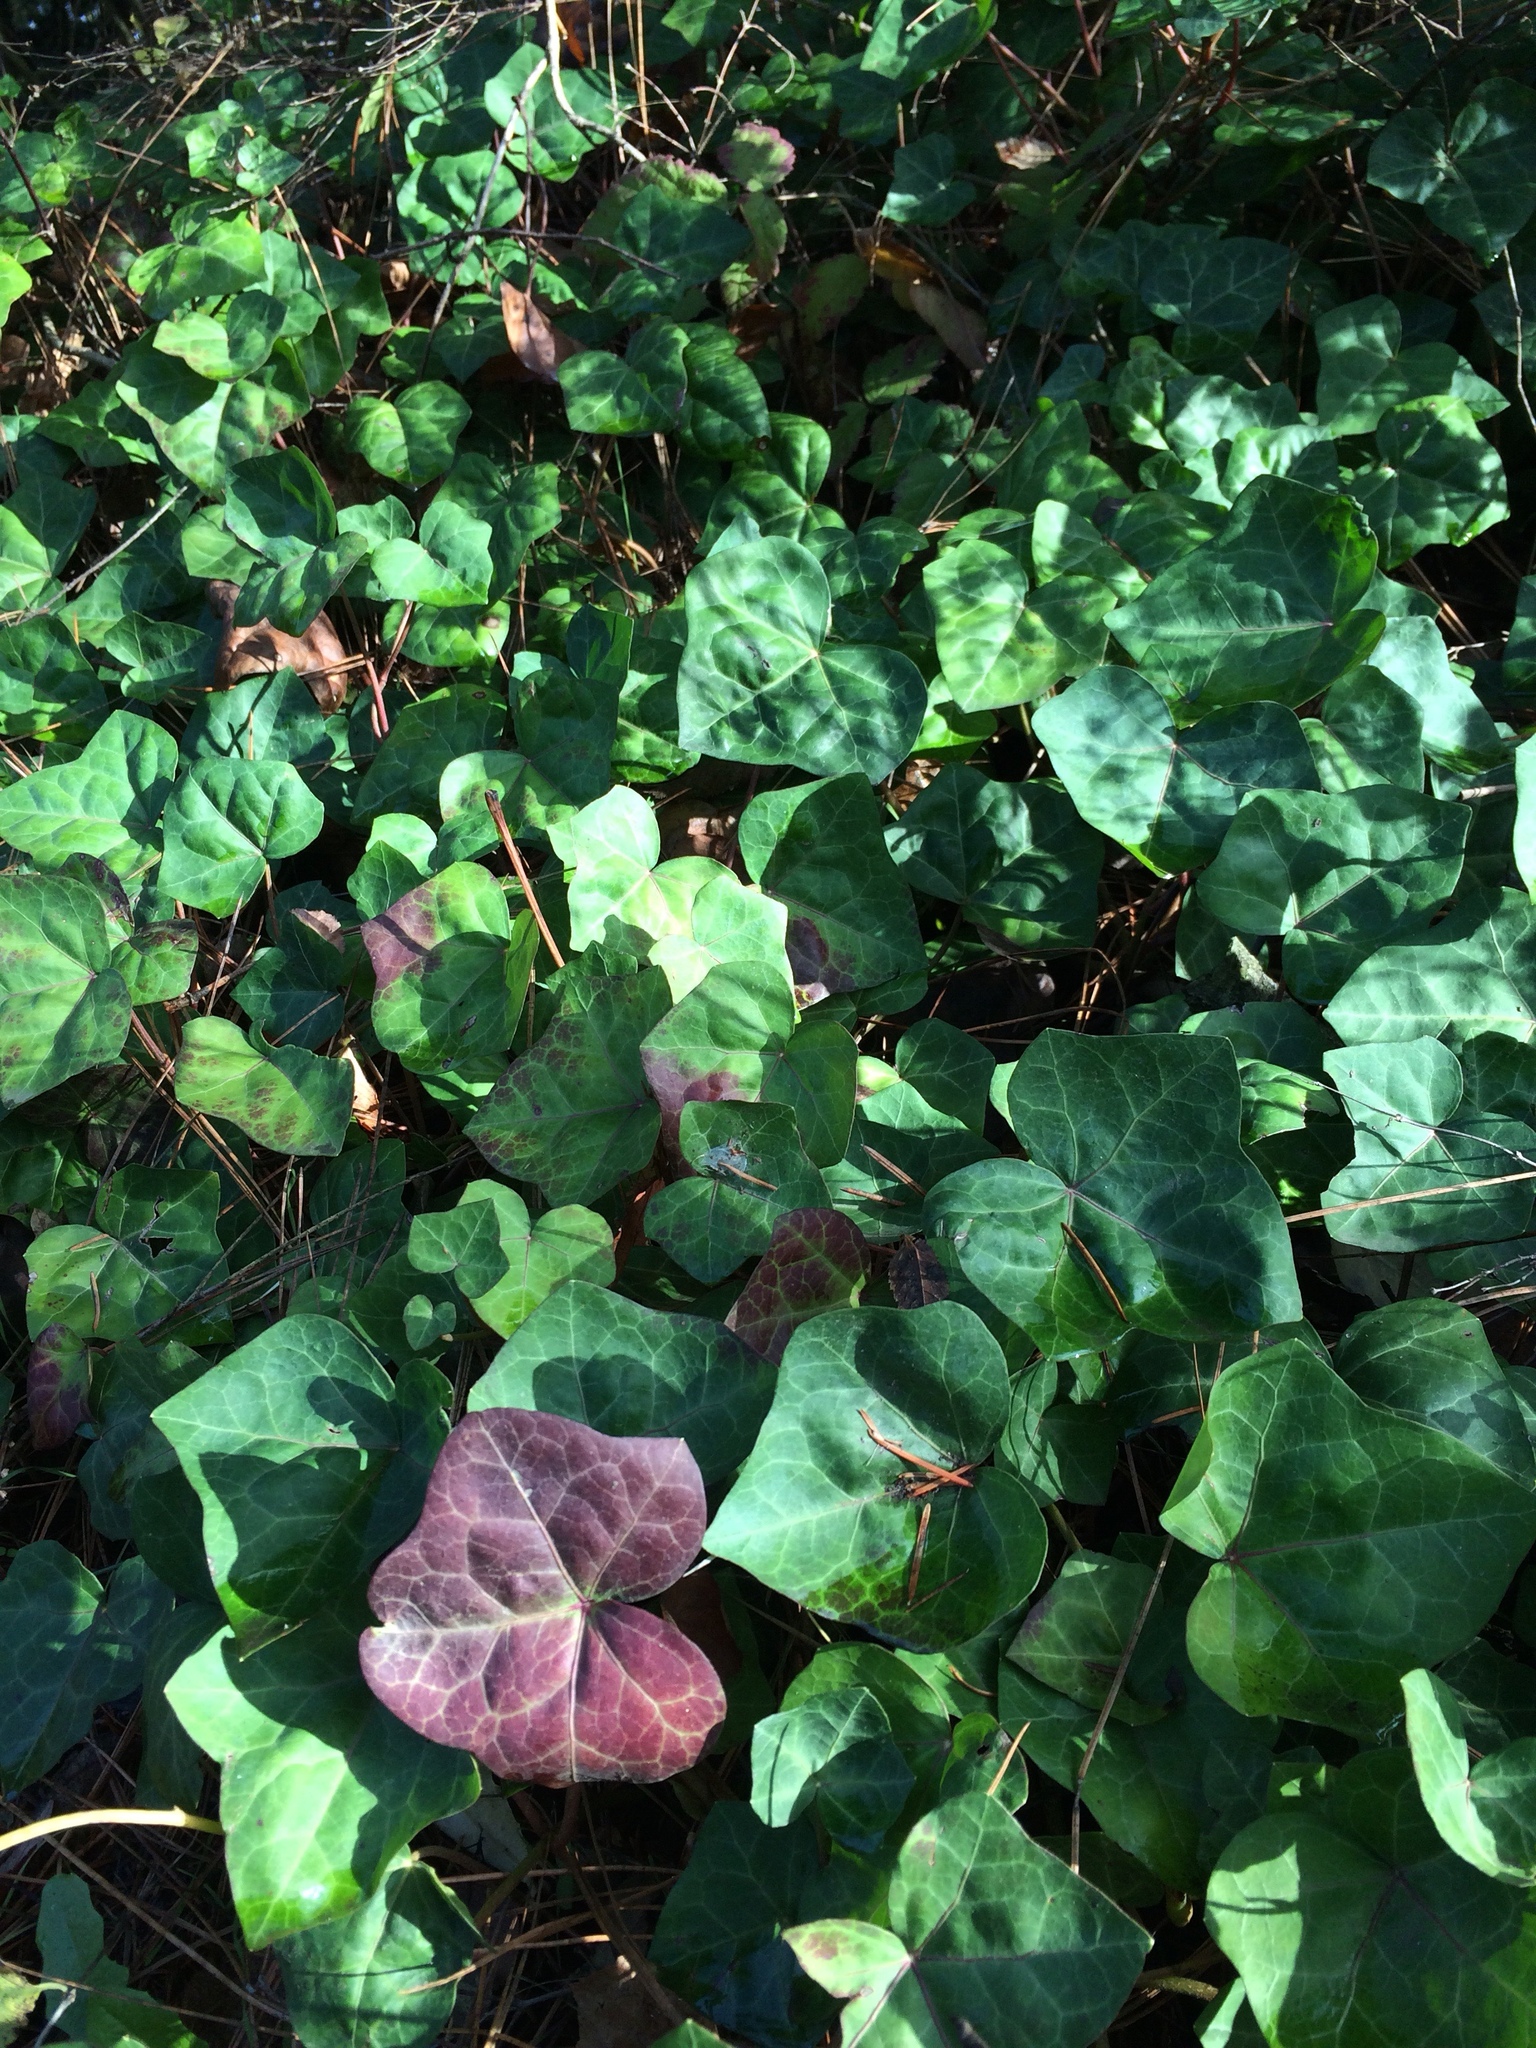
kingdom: Plantae
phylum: Tracheophyta
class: Magnoliopsida
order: Apiales
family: Araliaceae
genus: Hedera
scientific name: Hedera helix
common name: Ivy
